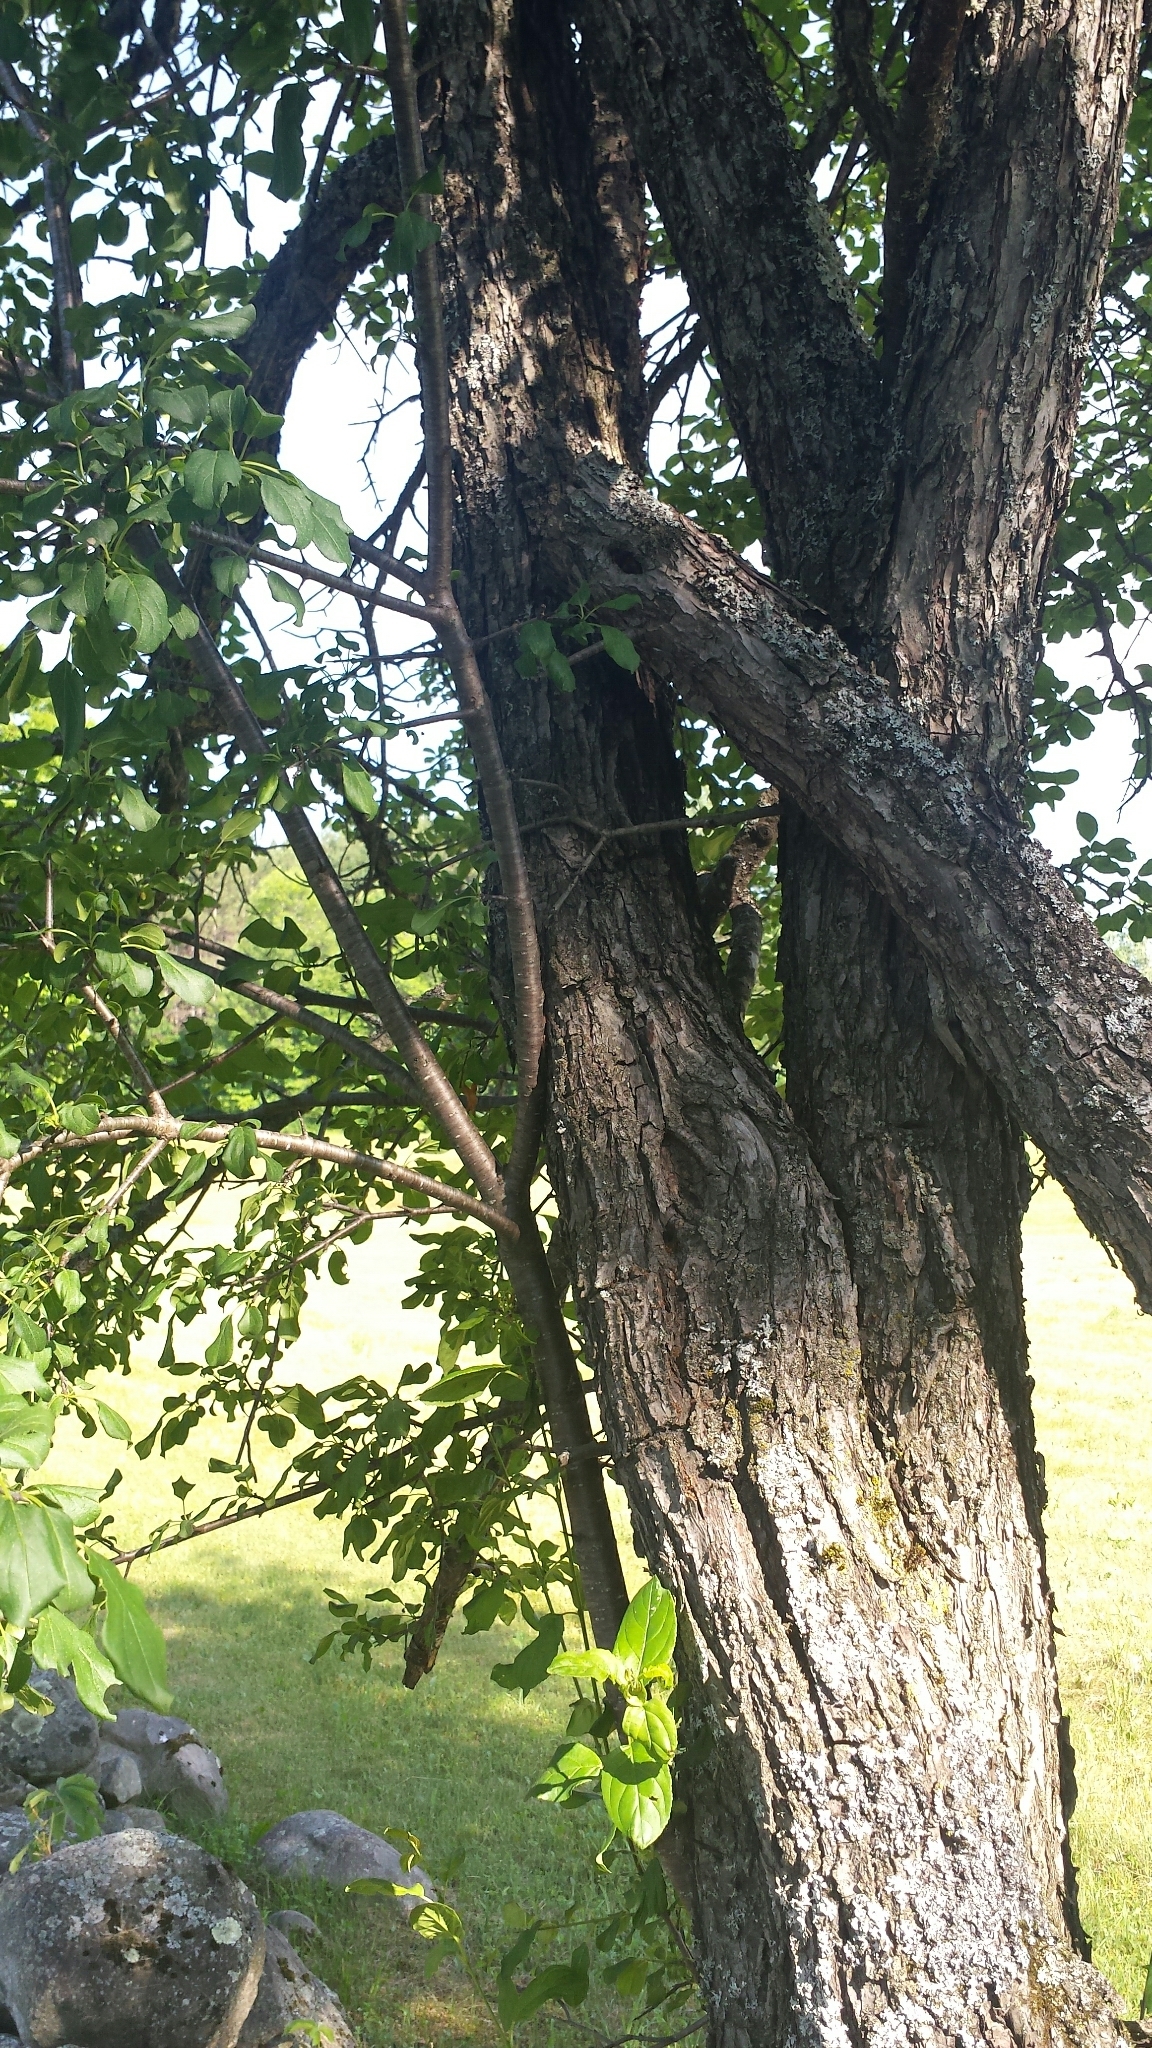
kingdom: Plantae
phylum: Tracheophyta
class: Magnoliopsida
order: Rosales
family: Rhamnaceae
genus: Rhamnus
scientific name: Rhamnus cathartica
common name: Common buckthorn
